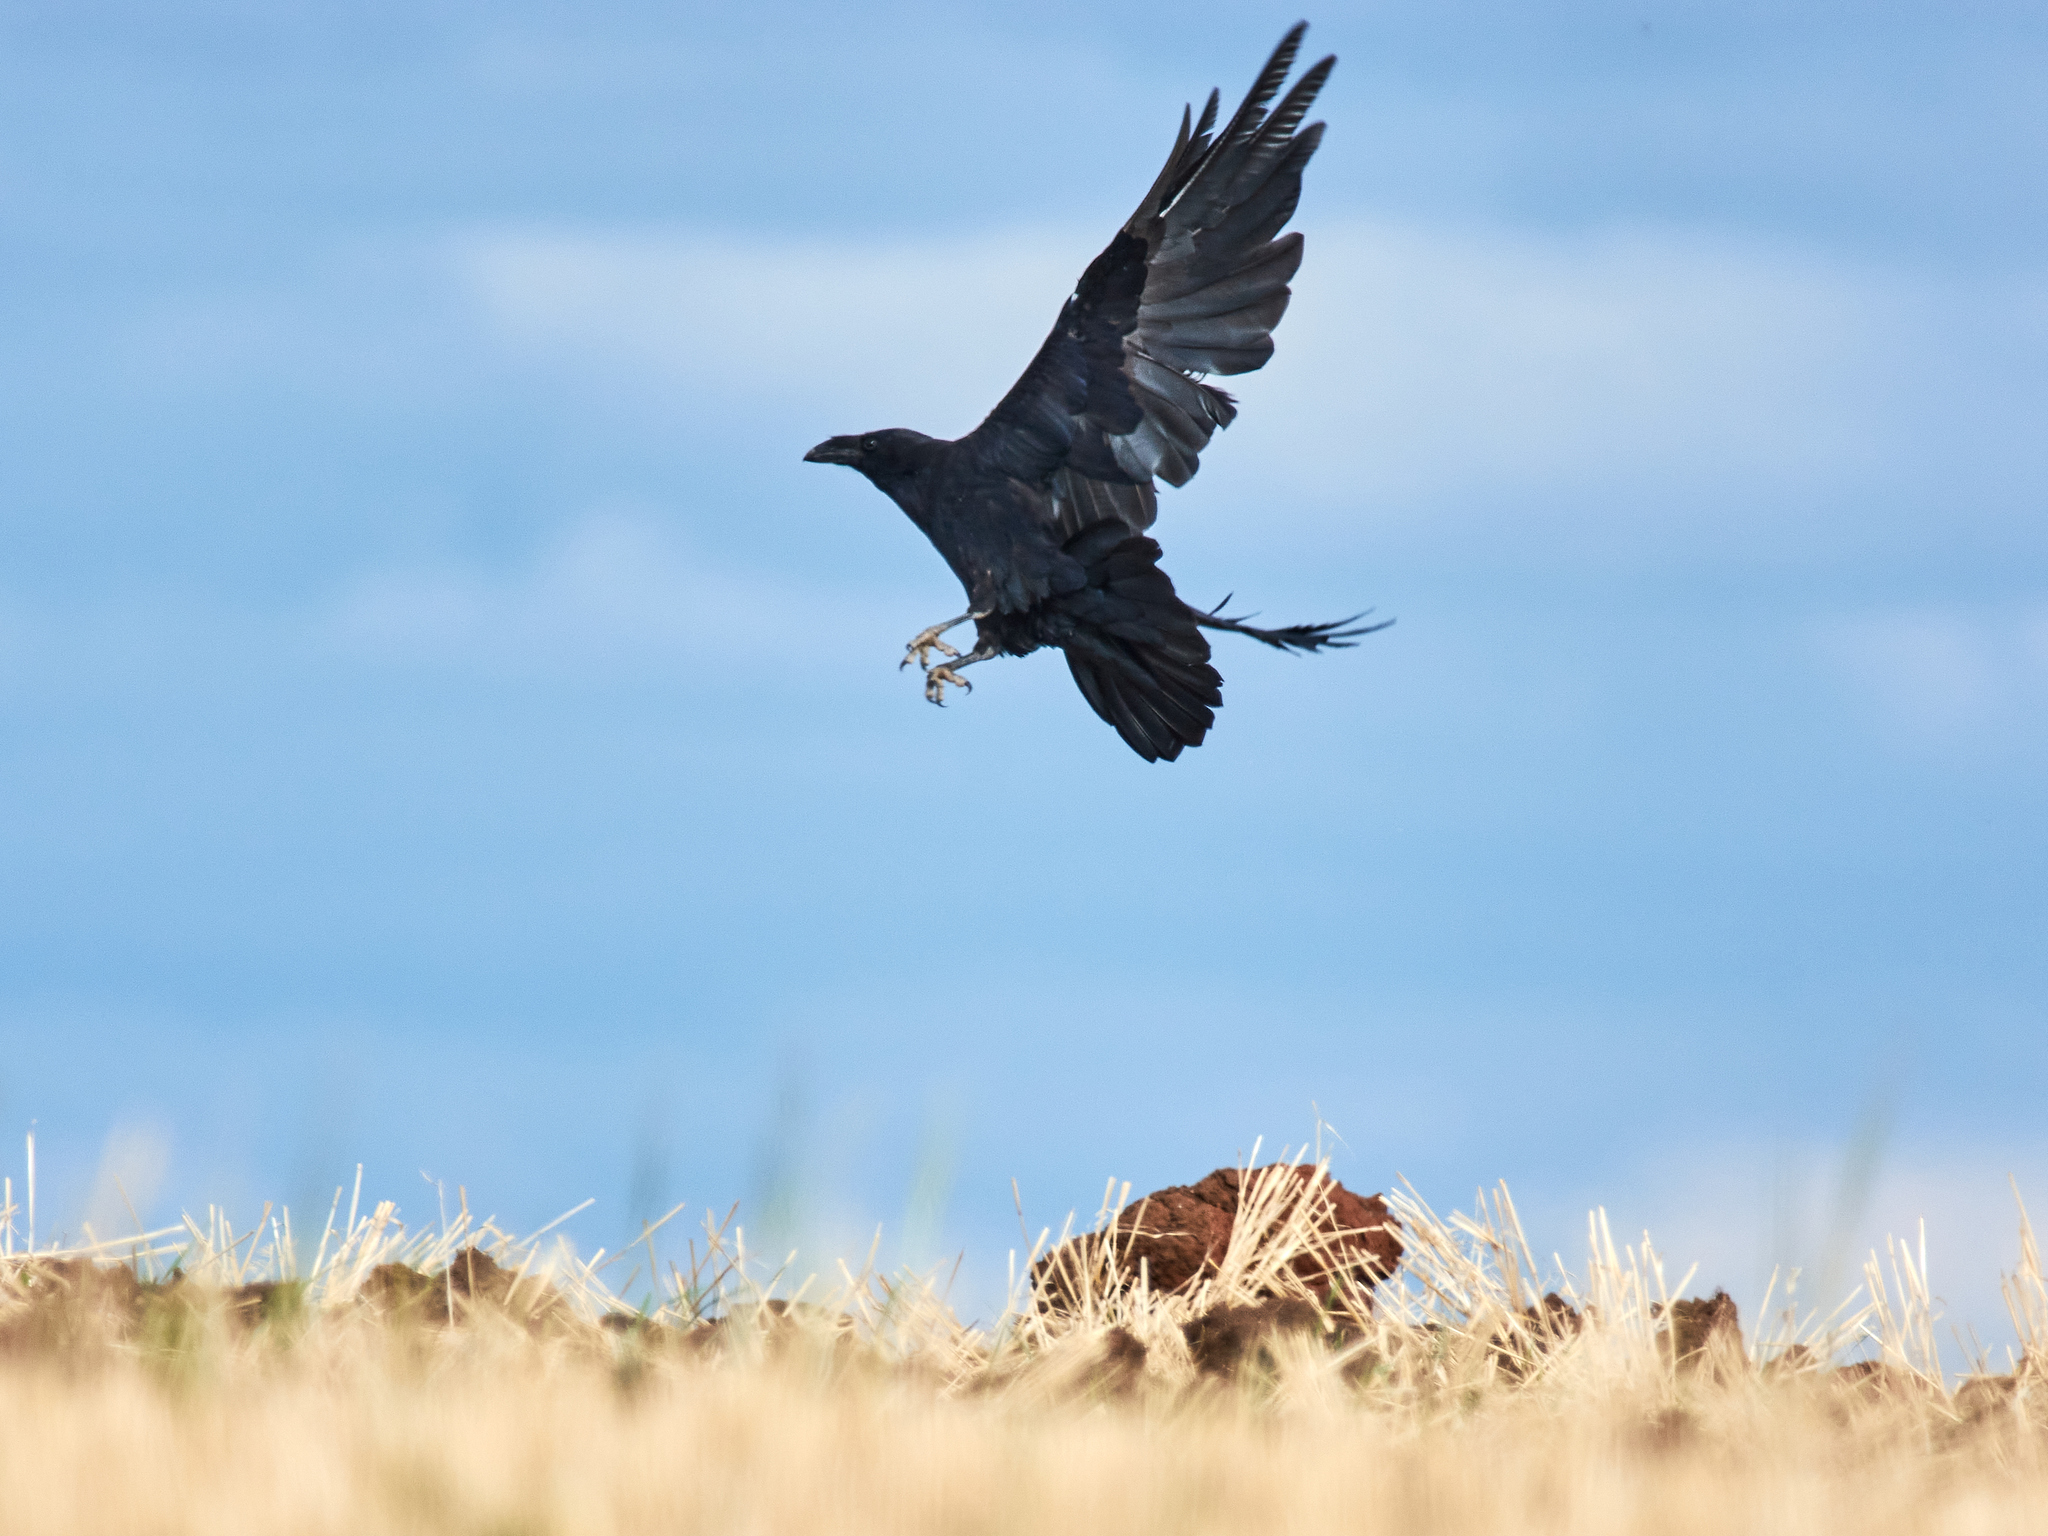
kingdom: Animalia
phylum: Chordata
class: Aves
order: Passeriformes
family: Corvidae
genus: Corvus
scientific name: Corvus corax
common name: Common raven
